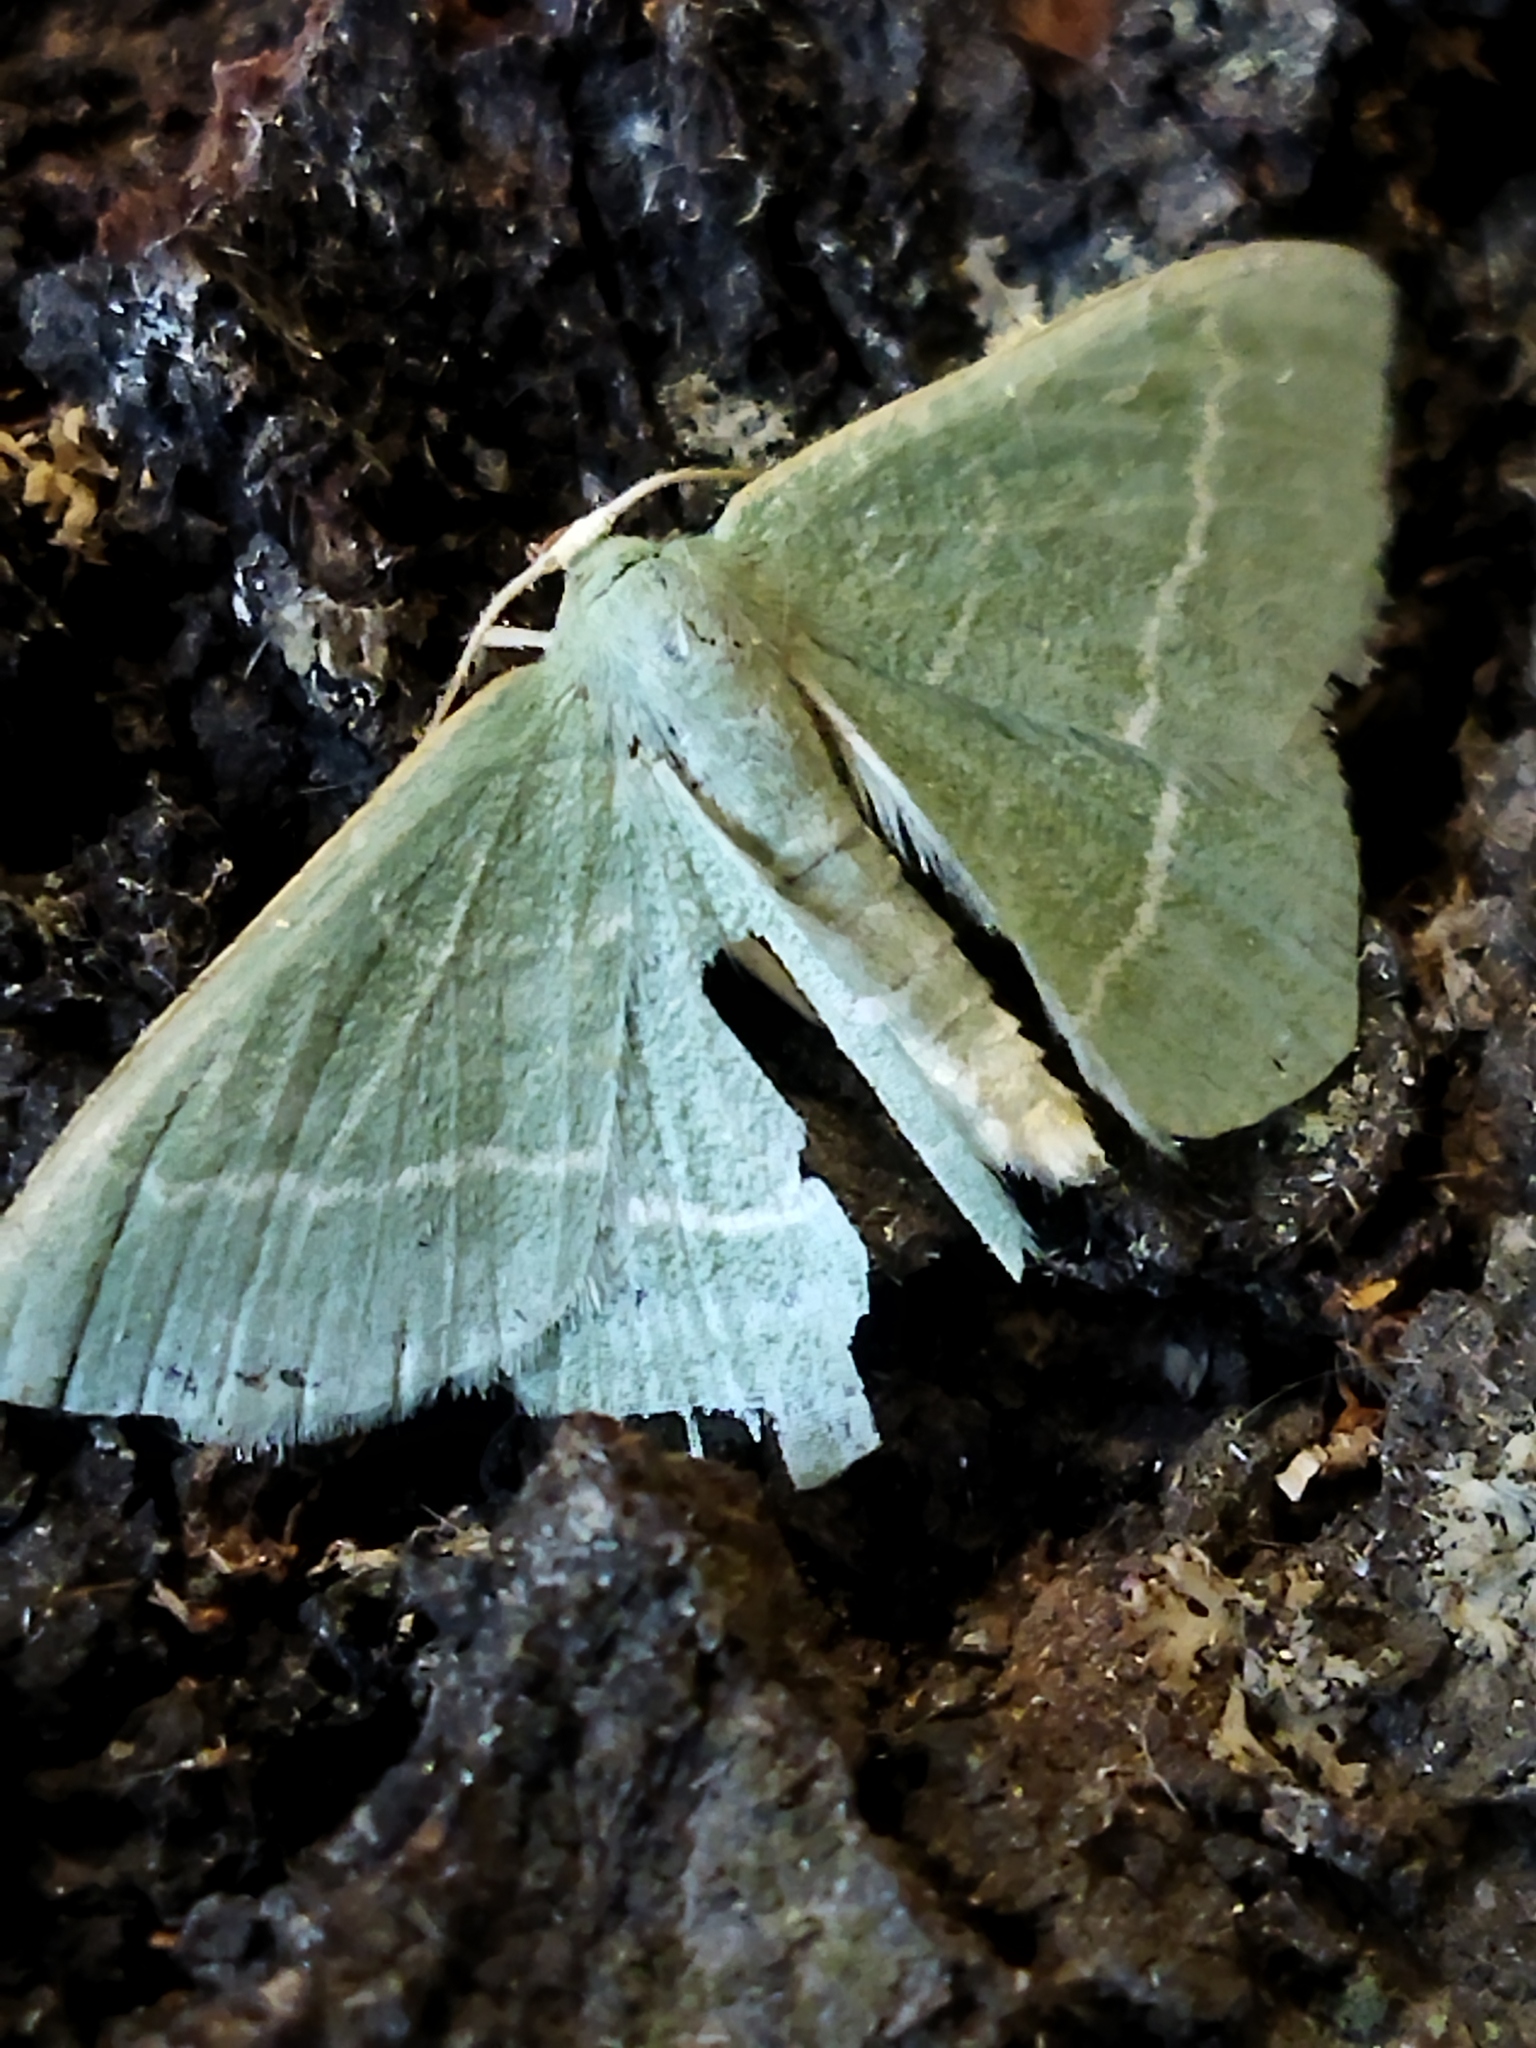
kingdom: Animalia
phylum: Arthropoda
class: Insecta
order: Lepidoptera
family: Geometridae
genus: Chlorissa
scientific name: Chlorissa
